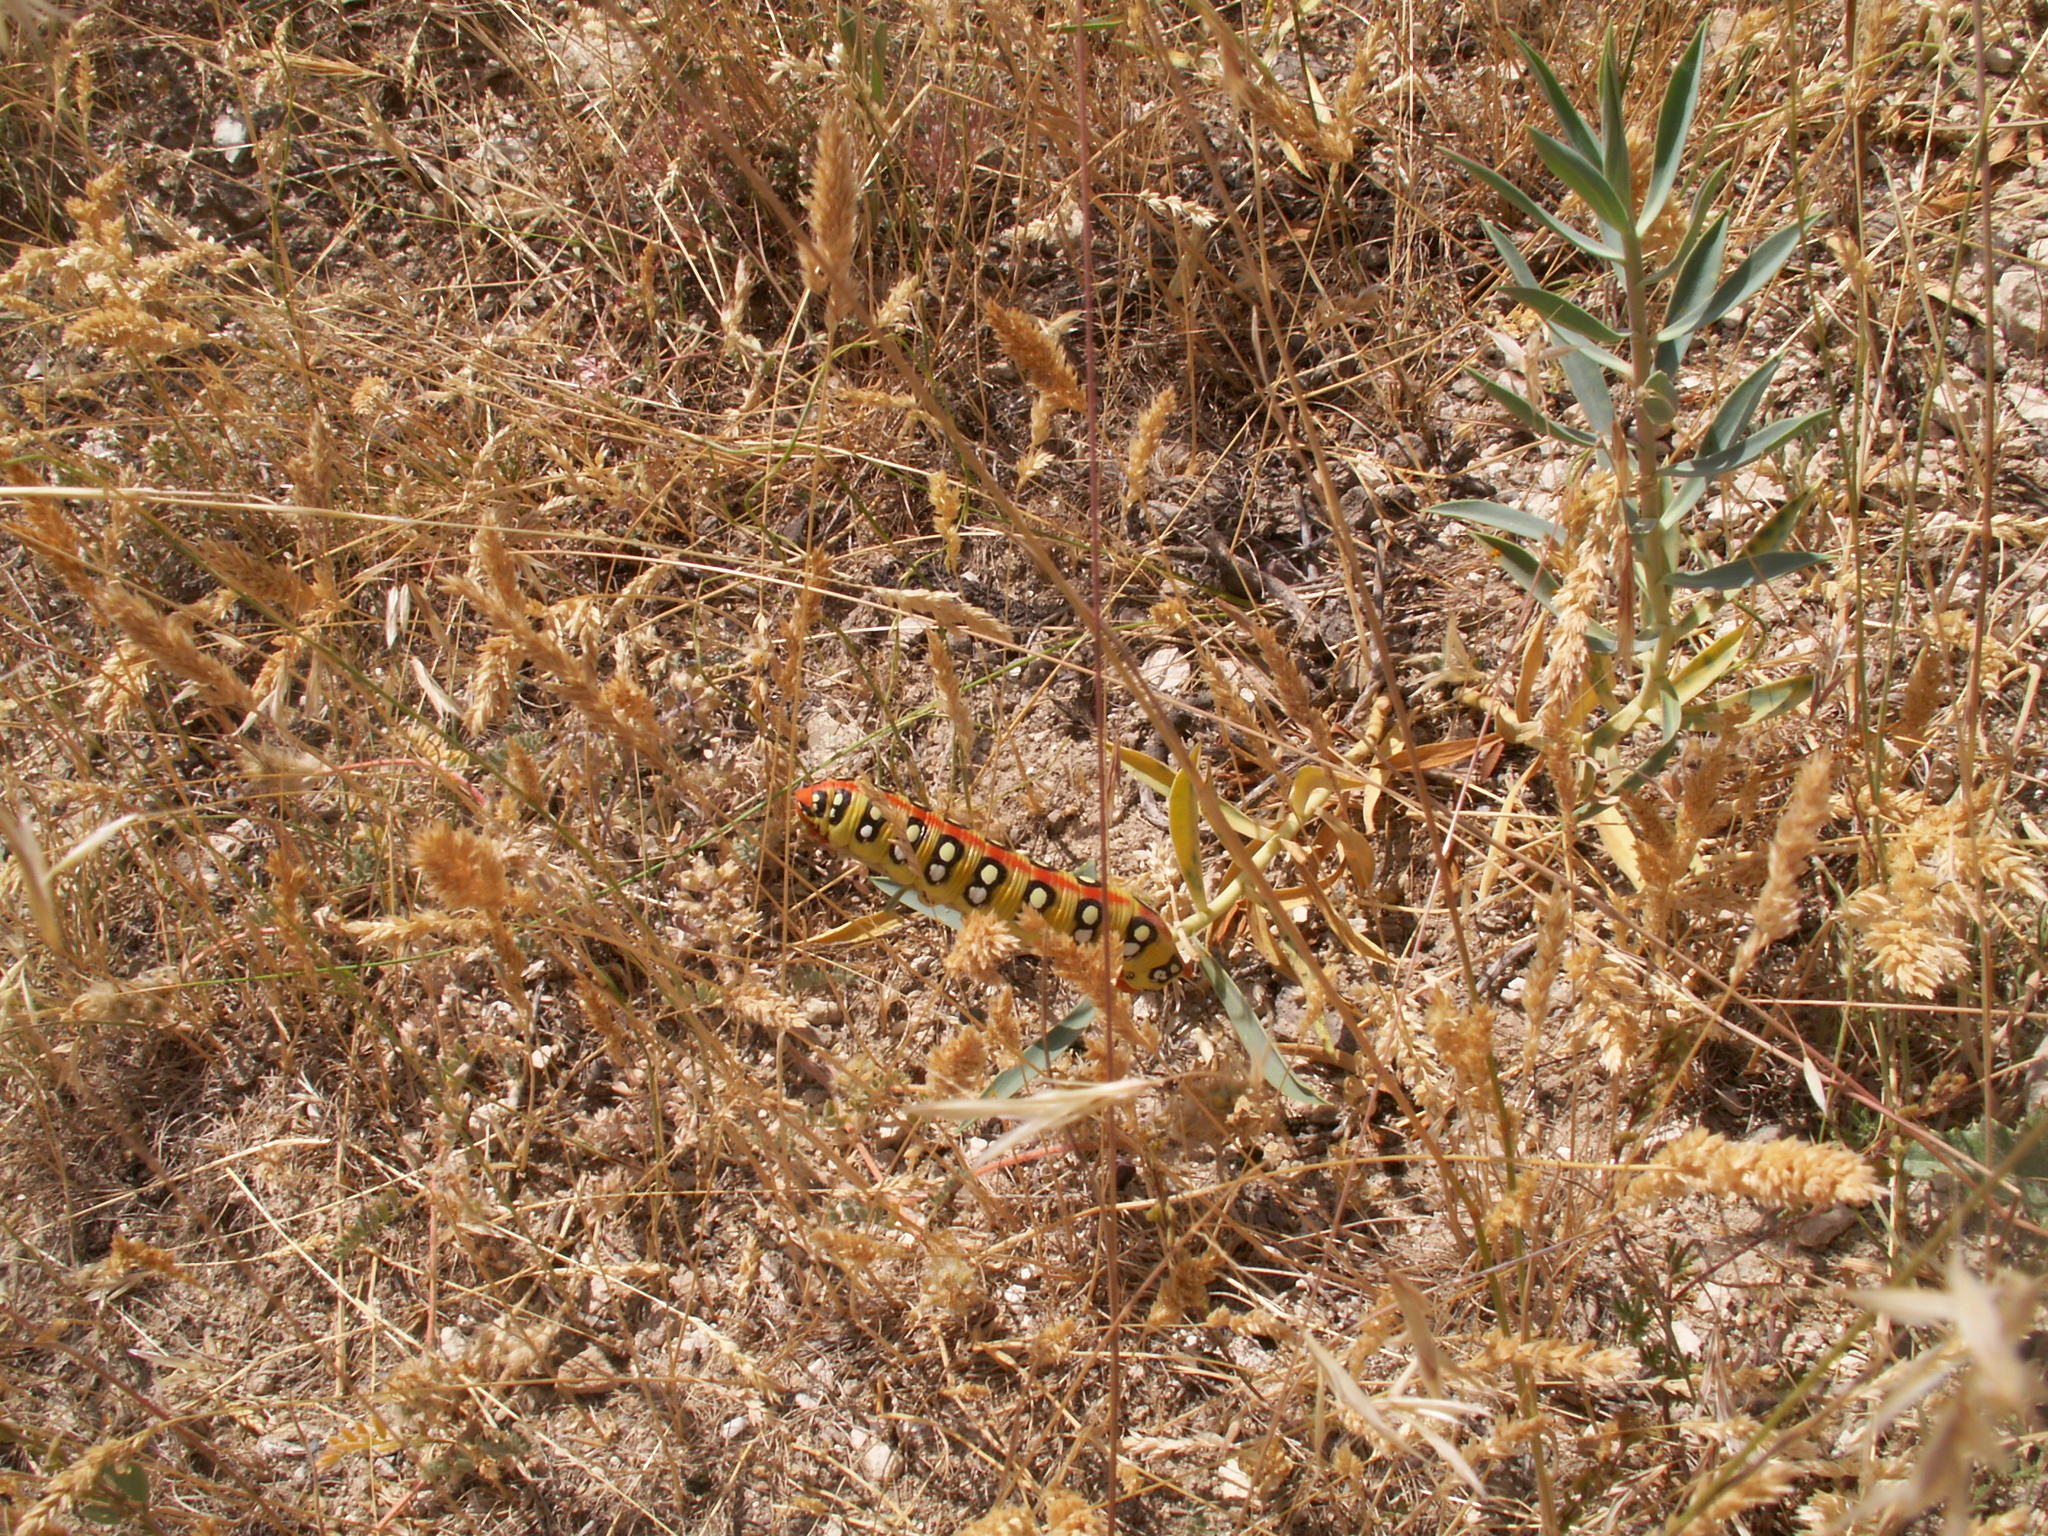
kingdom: Animalia
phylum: Arthropoda
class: Insecta
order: Lepidoptera
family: Sphingidae
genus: Hyles
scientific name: Hyles euphorbiae
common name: Spurge hawk-moth
